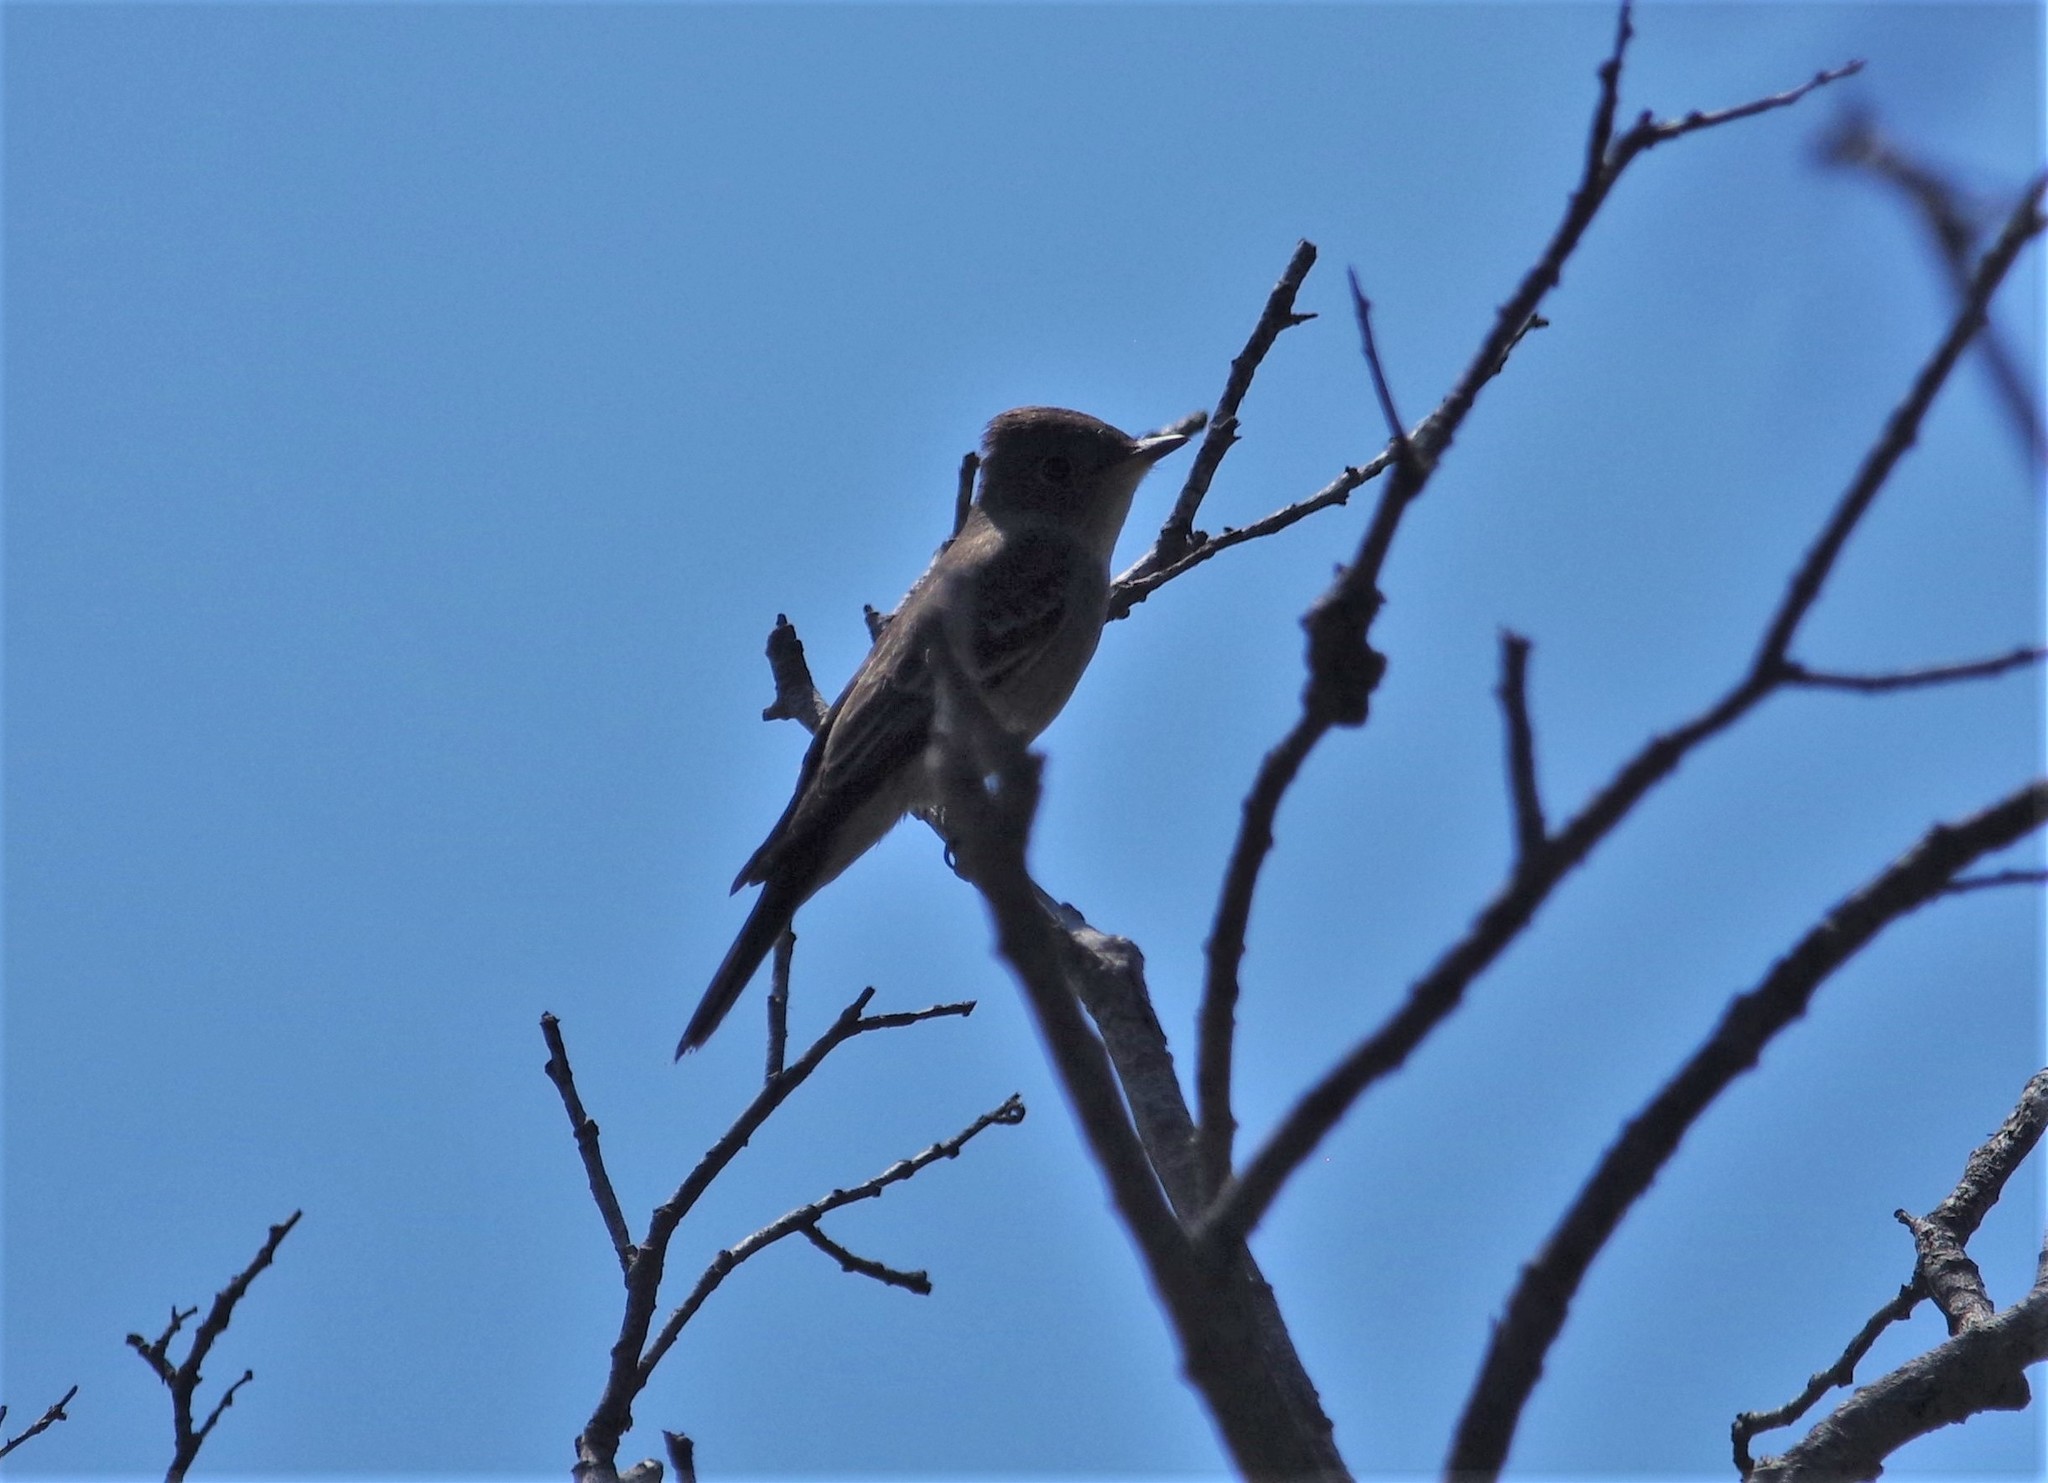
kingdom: Animalia
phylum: Chordata
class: Aves
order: Passeriformes
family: Tyrannidae
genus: Contopus
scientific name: Contopus sordidulus
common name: Western wood-pewee
